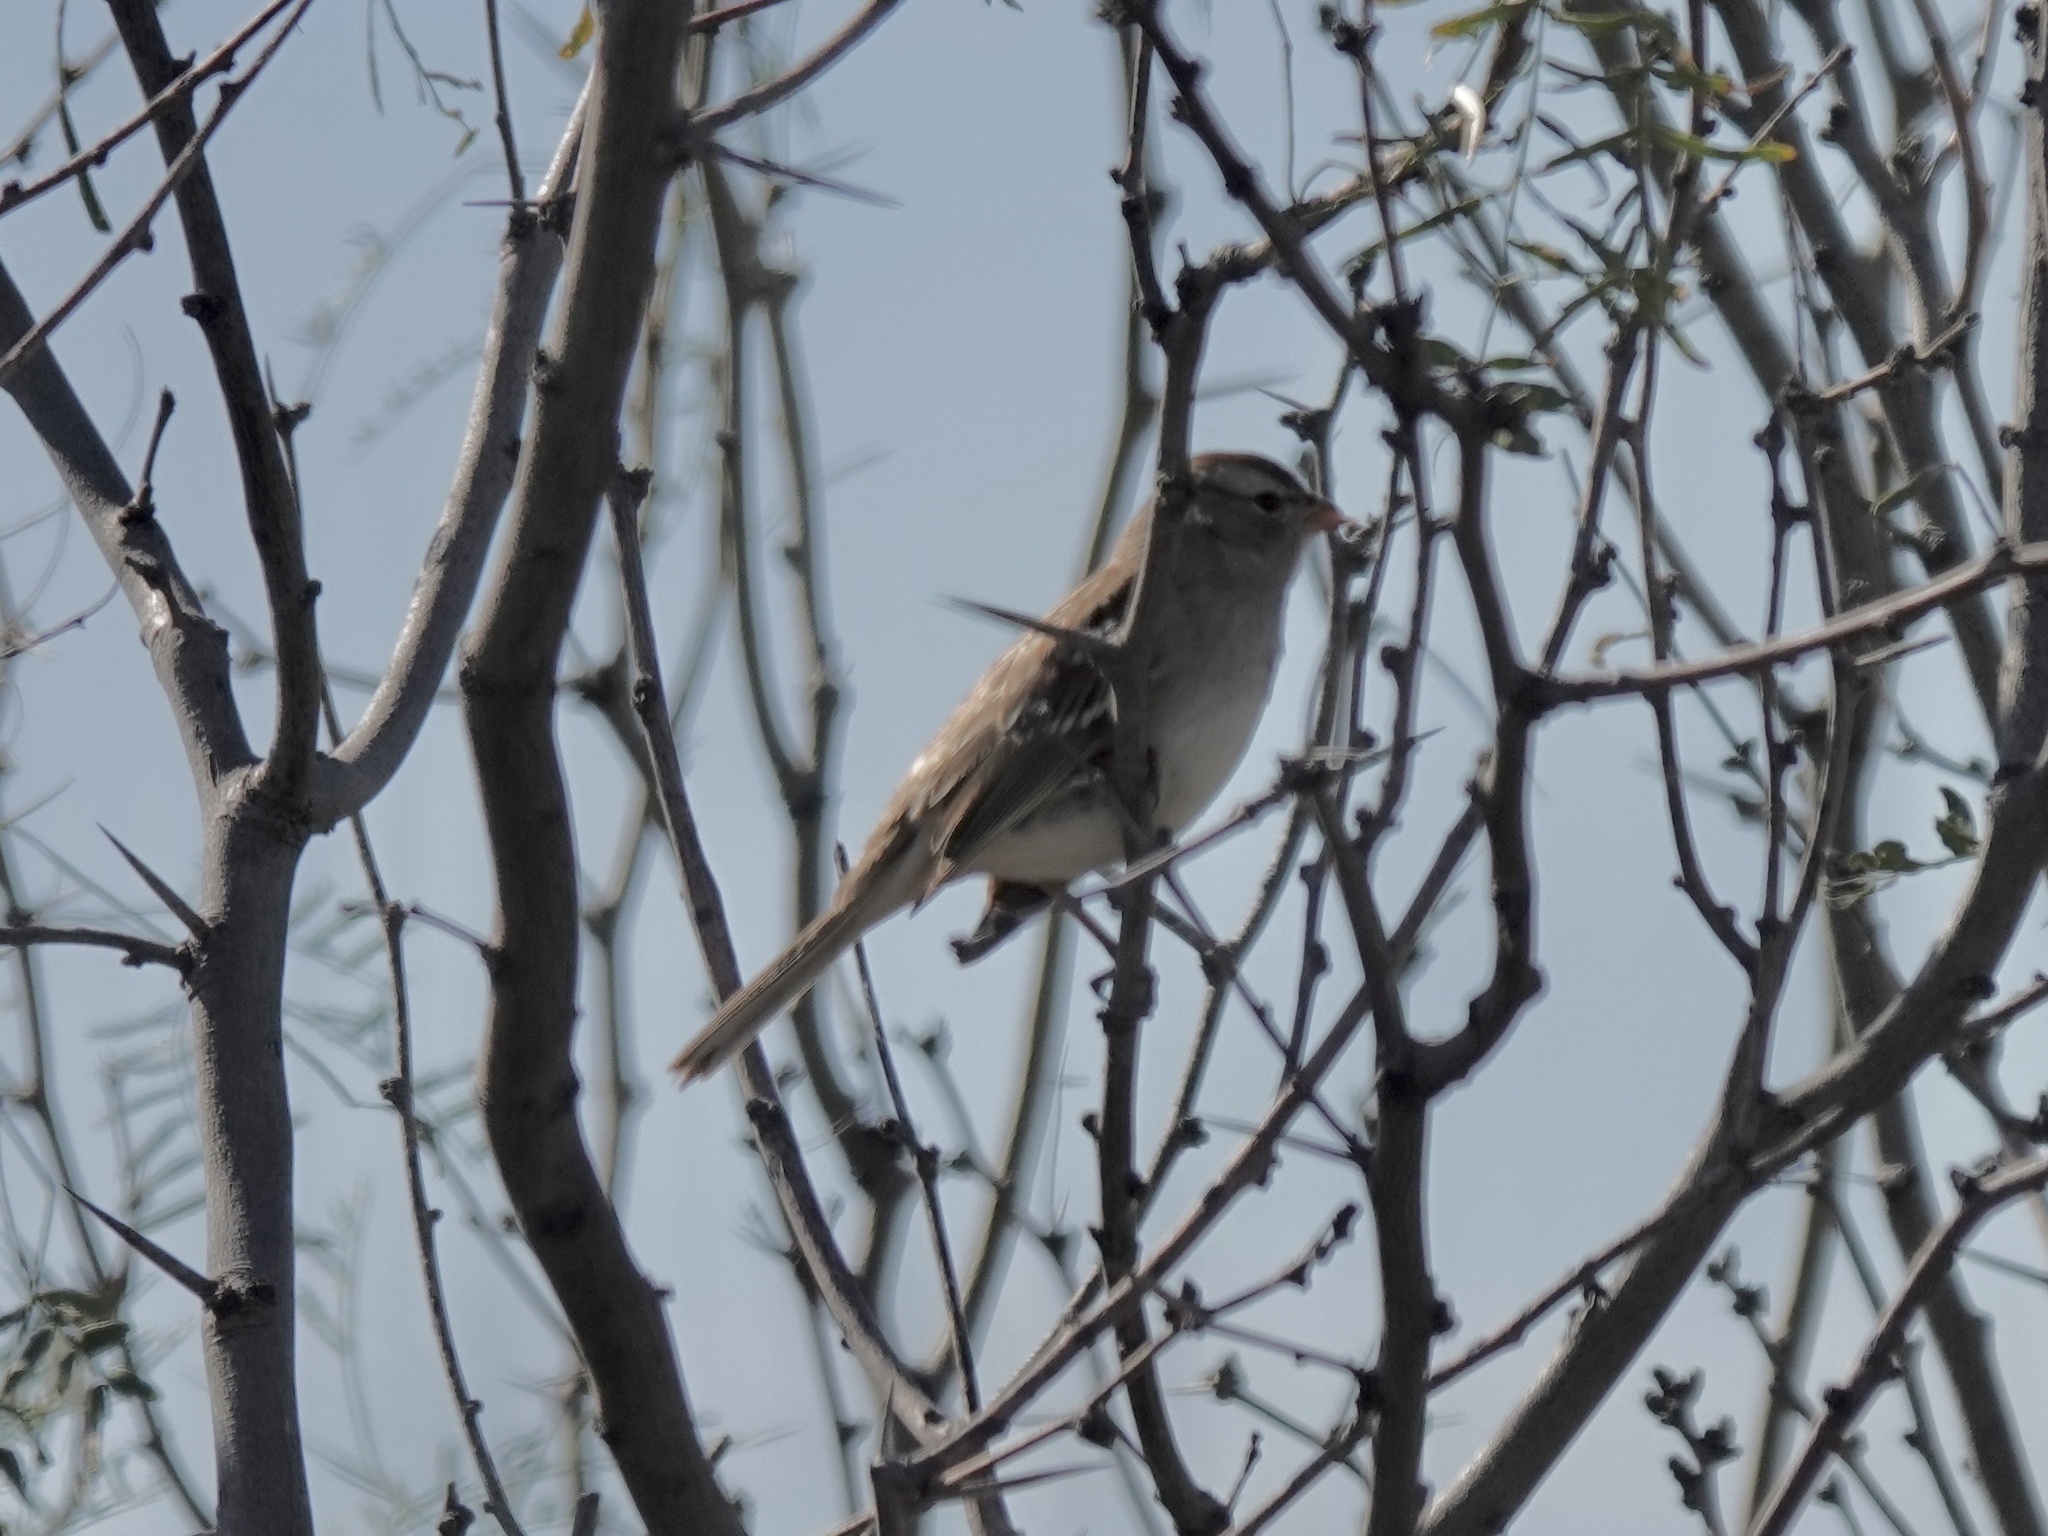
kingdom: Animalia
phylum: Chordata
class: Aves
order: Passeriformes
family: Passerellidae
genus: Zonotrichia
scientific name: Zonotrichia leucophrys
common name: White-crowned sparrow
